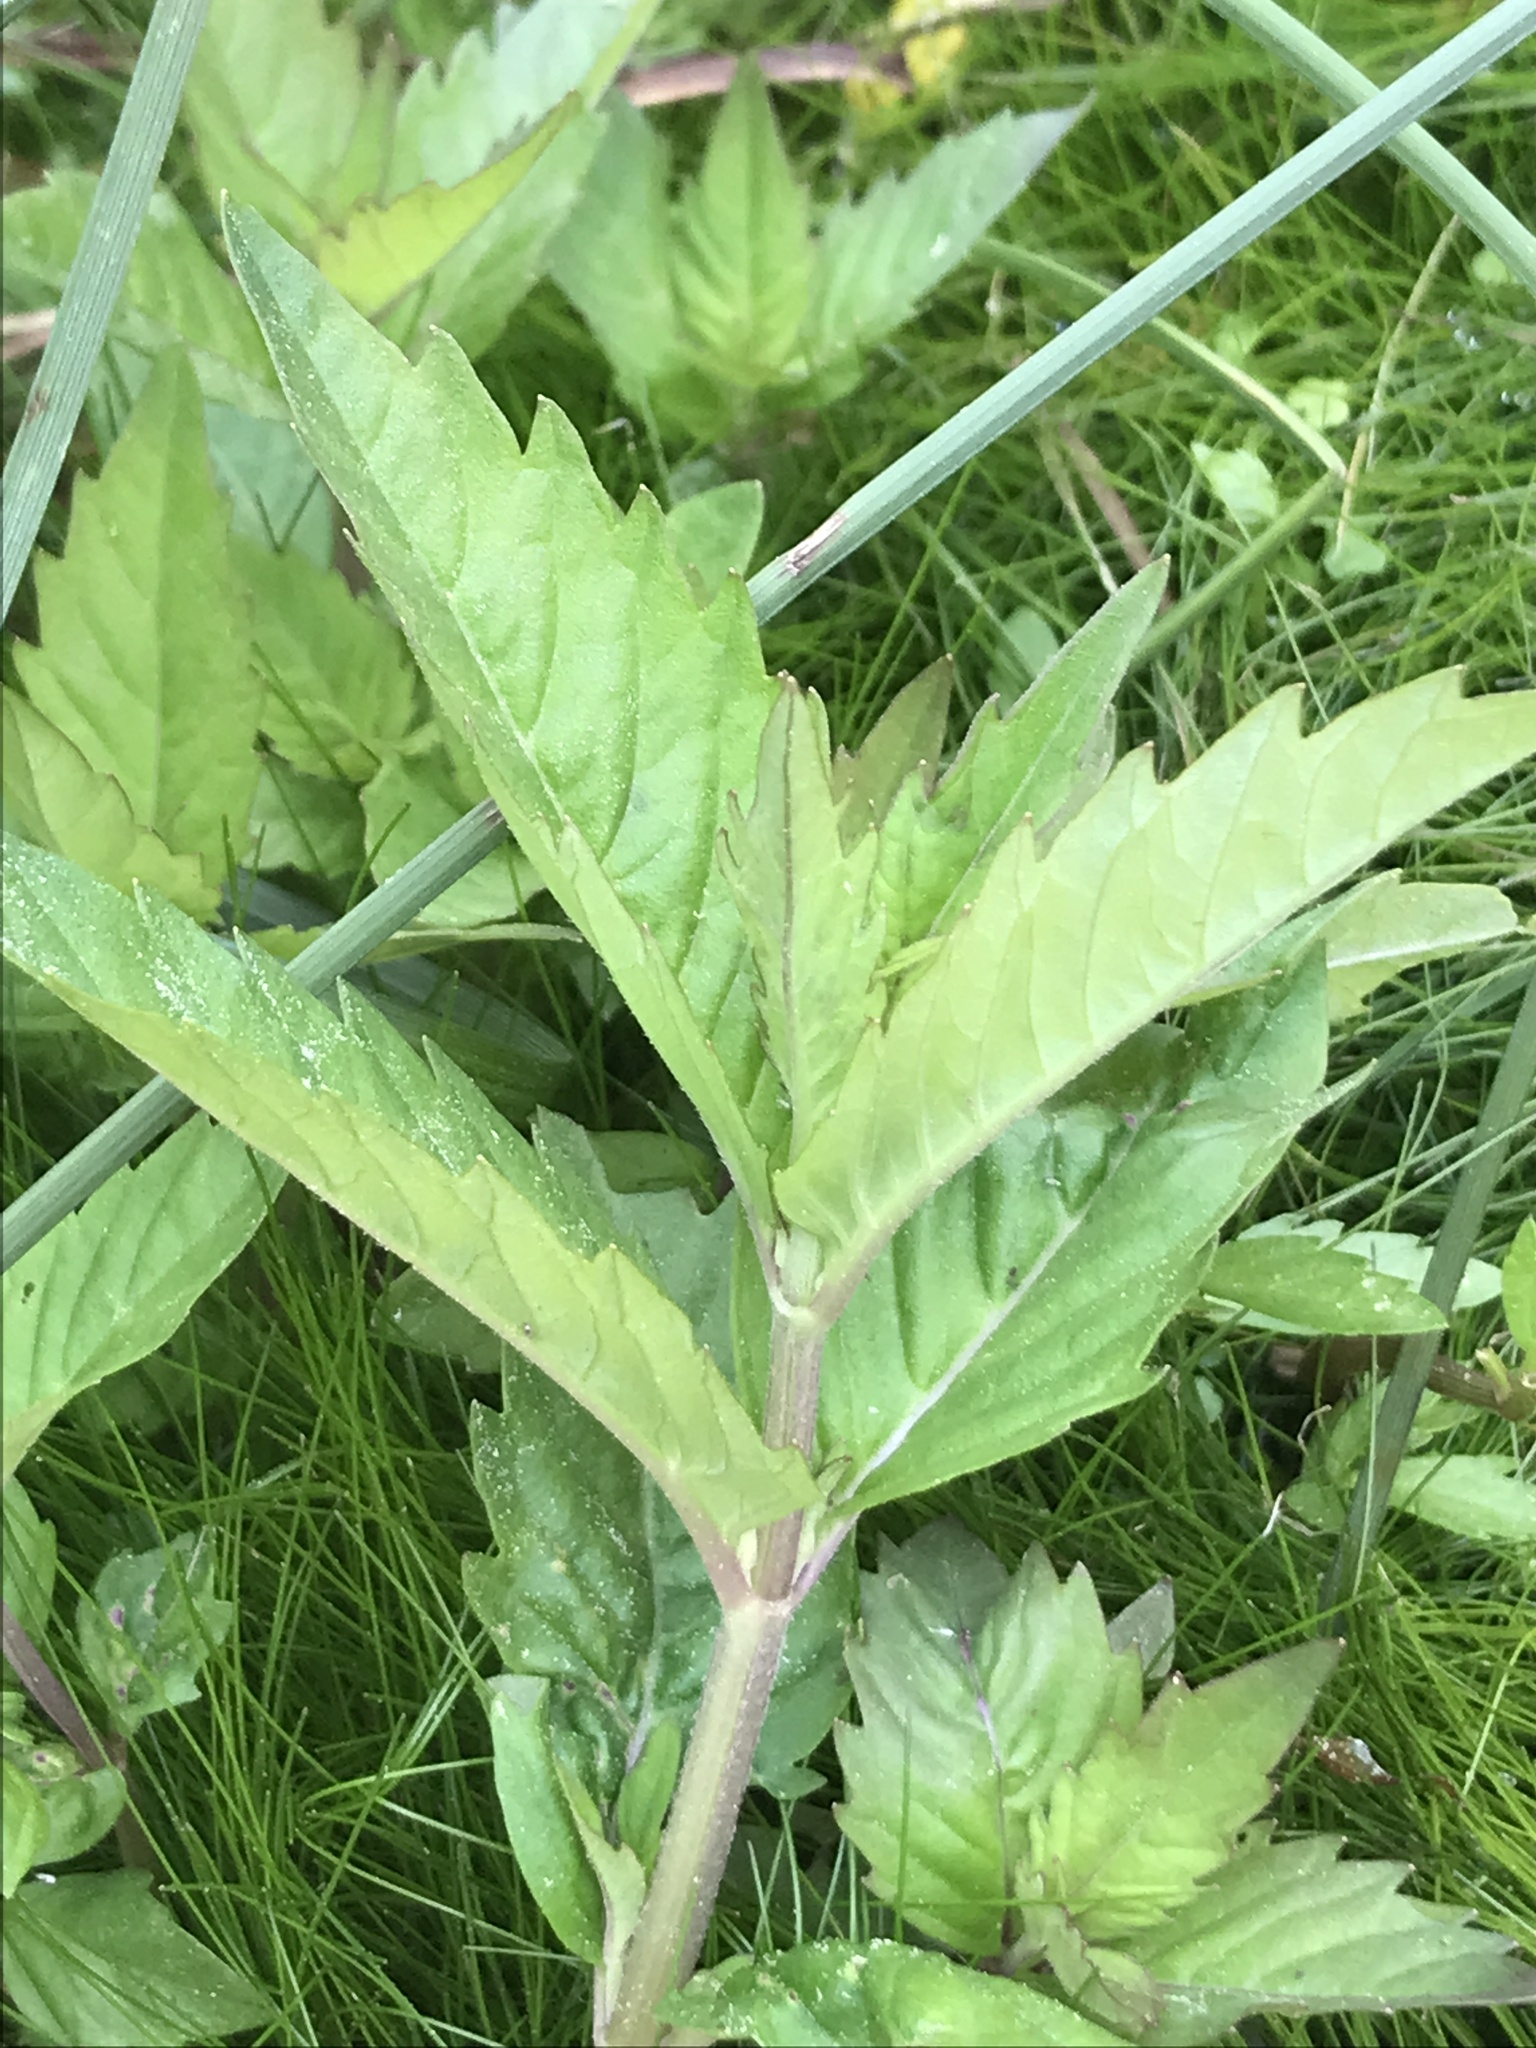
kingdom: Plantae
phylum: Tracheophyta
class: Magnoliopsida
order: Lamiales
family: Lamiaceae
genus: Lycopus
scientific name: Lycopus uniflorus
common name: Northern bugleweed
